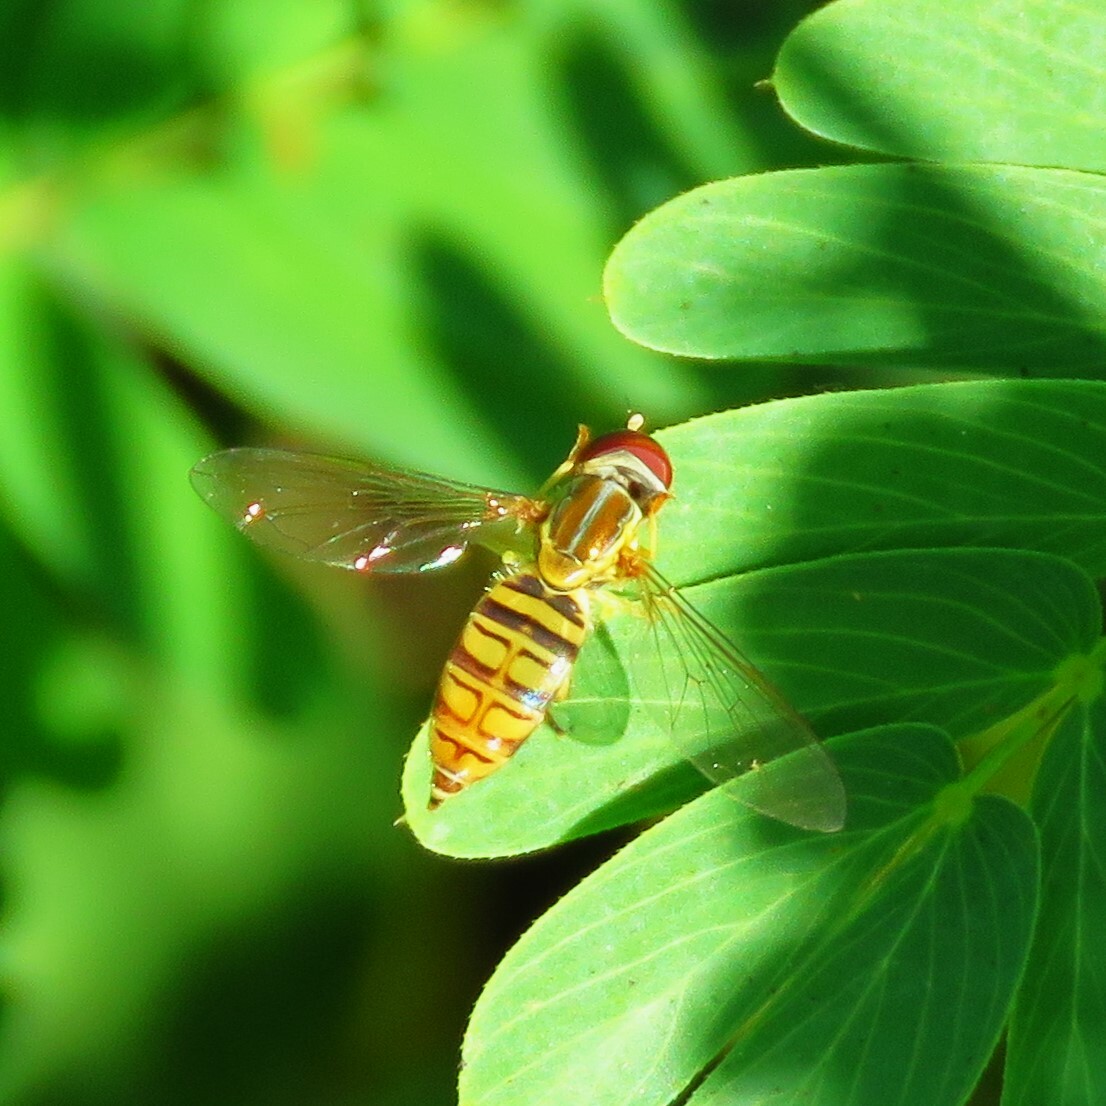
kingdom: Animalia
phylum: Arthropoda
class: Insecta
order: Diptera
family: Syrphidae
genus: Toxomerus
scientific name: Toxomerus politus
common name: Maize calligrapher
